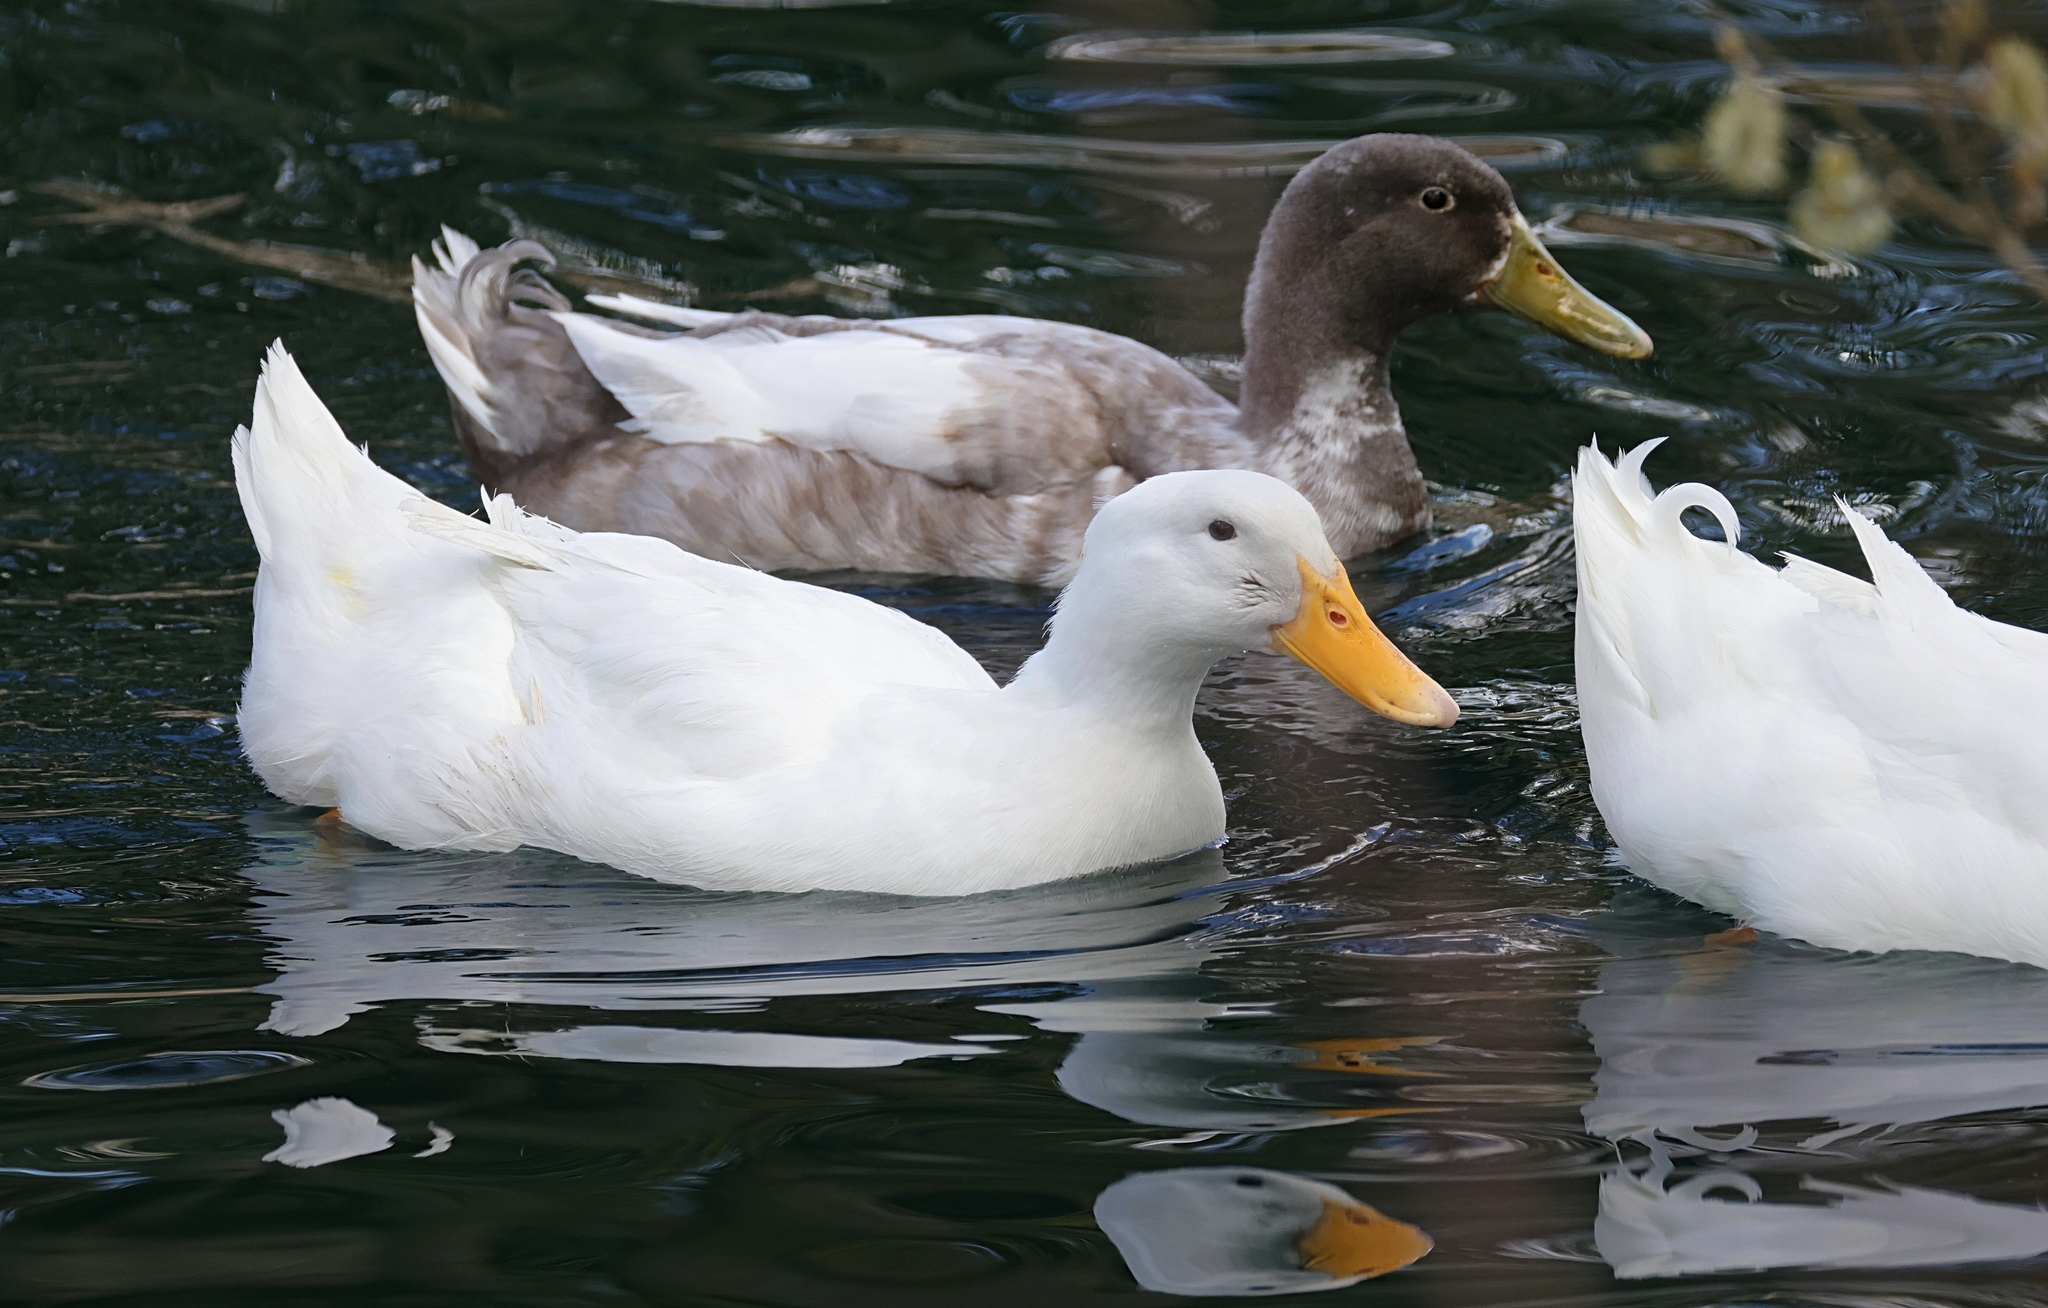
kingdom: Animalia
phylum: Chordata
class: Aves
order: Anseriformes
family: Anatidae
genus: Anas
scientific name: Anas platyrhynchos
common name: Mallard
